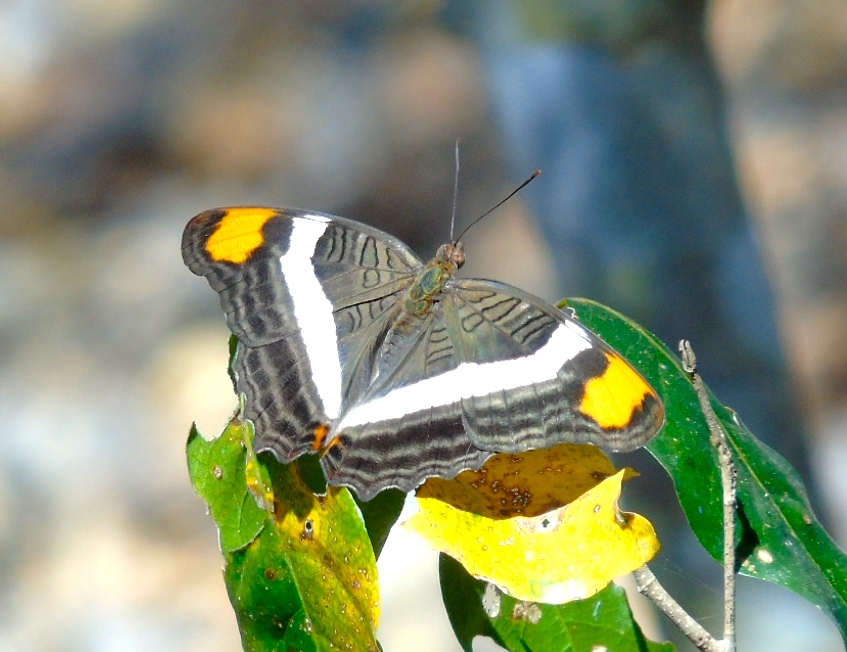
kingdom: Animalia
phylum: Arthropoda
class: Insecta
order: Lepidoptera
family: Nymphalidae
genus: Limenitis
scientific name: Limenitis fessonia
